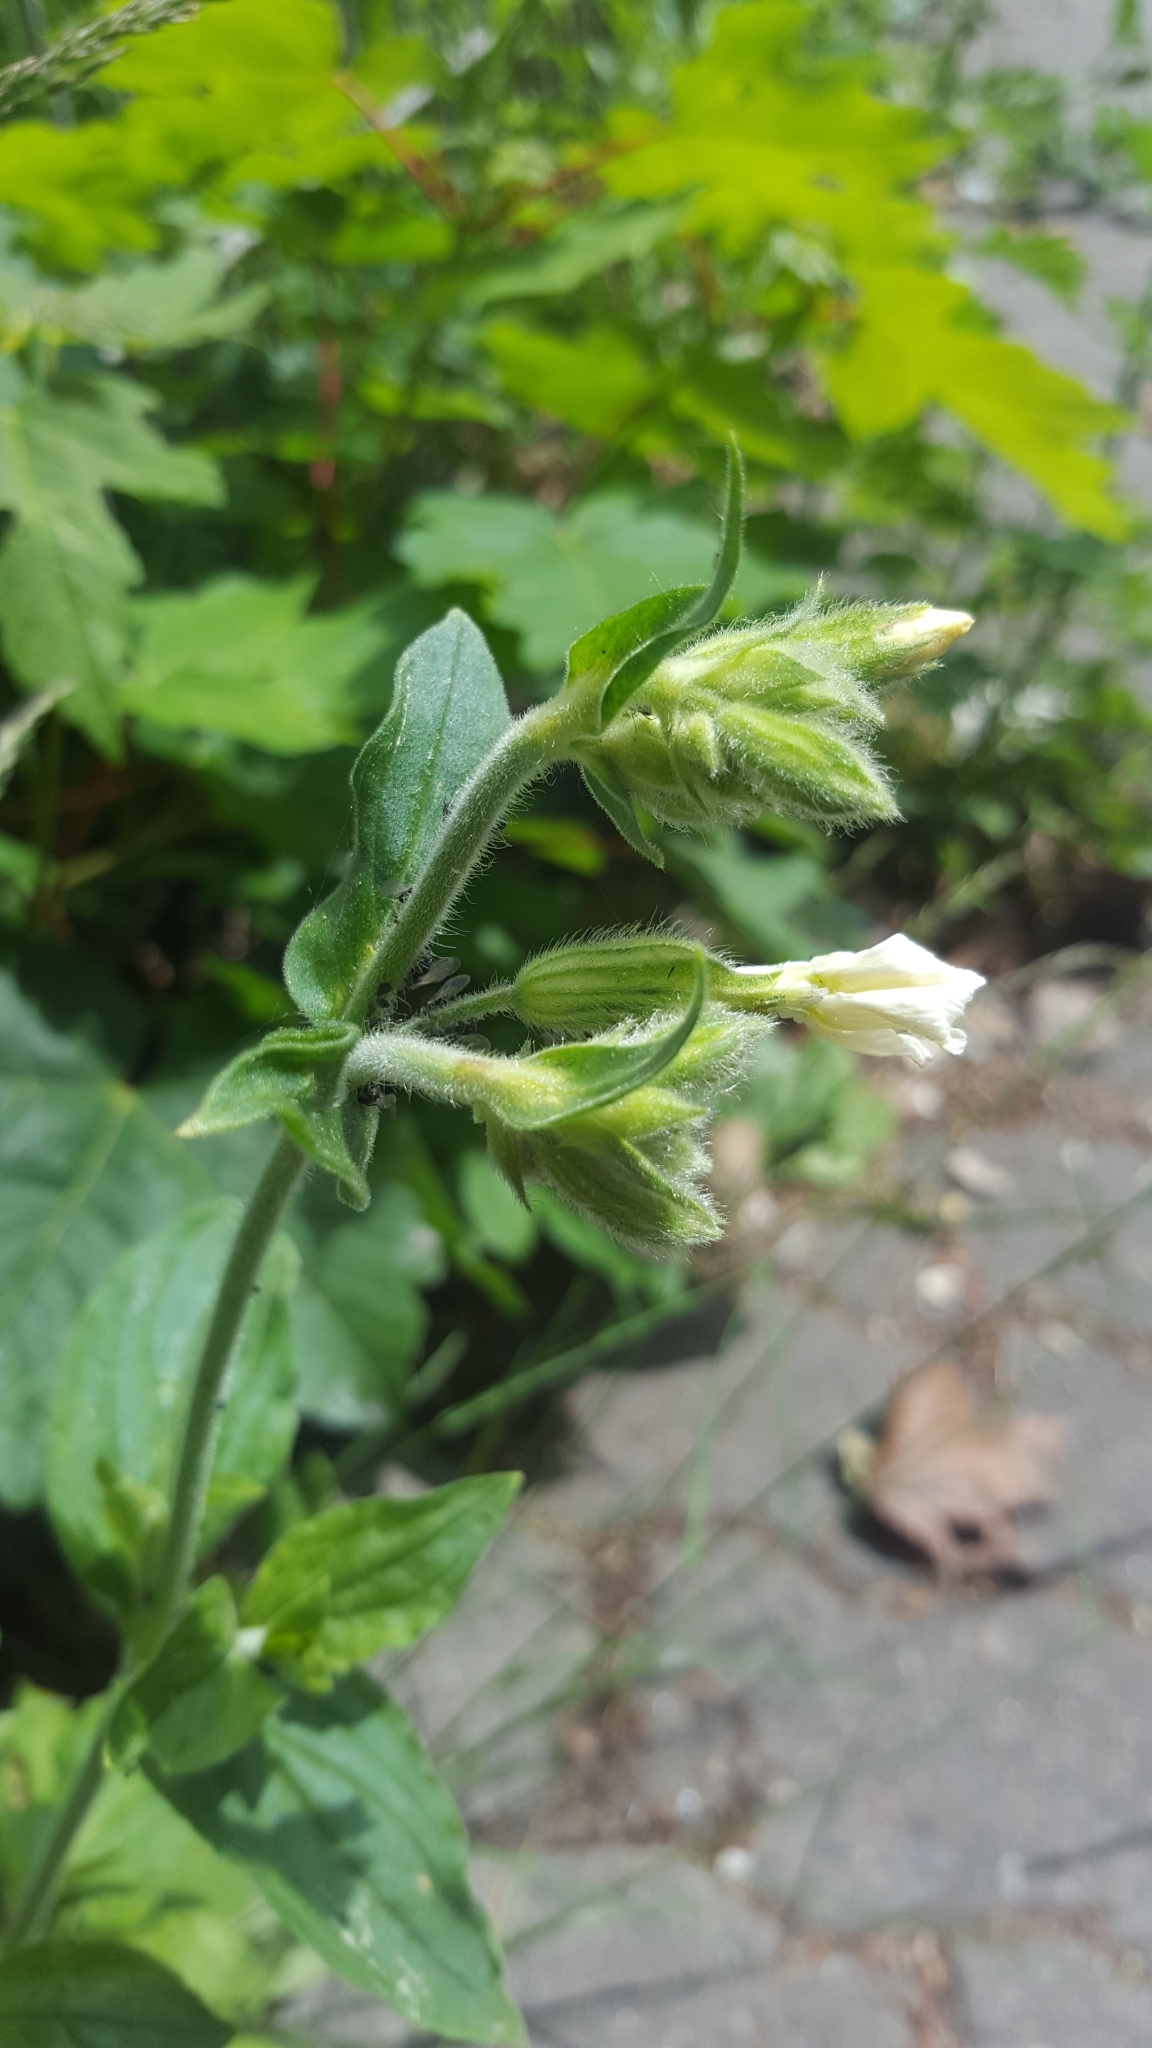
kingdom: Plantae
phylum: Tracheophyta
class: Magnoliopsida
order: Caryophyllales
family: Caryophyllaceae
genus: Silene
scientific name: Silene latifolia
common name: White campion
